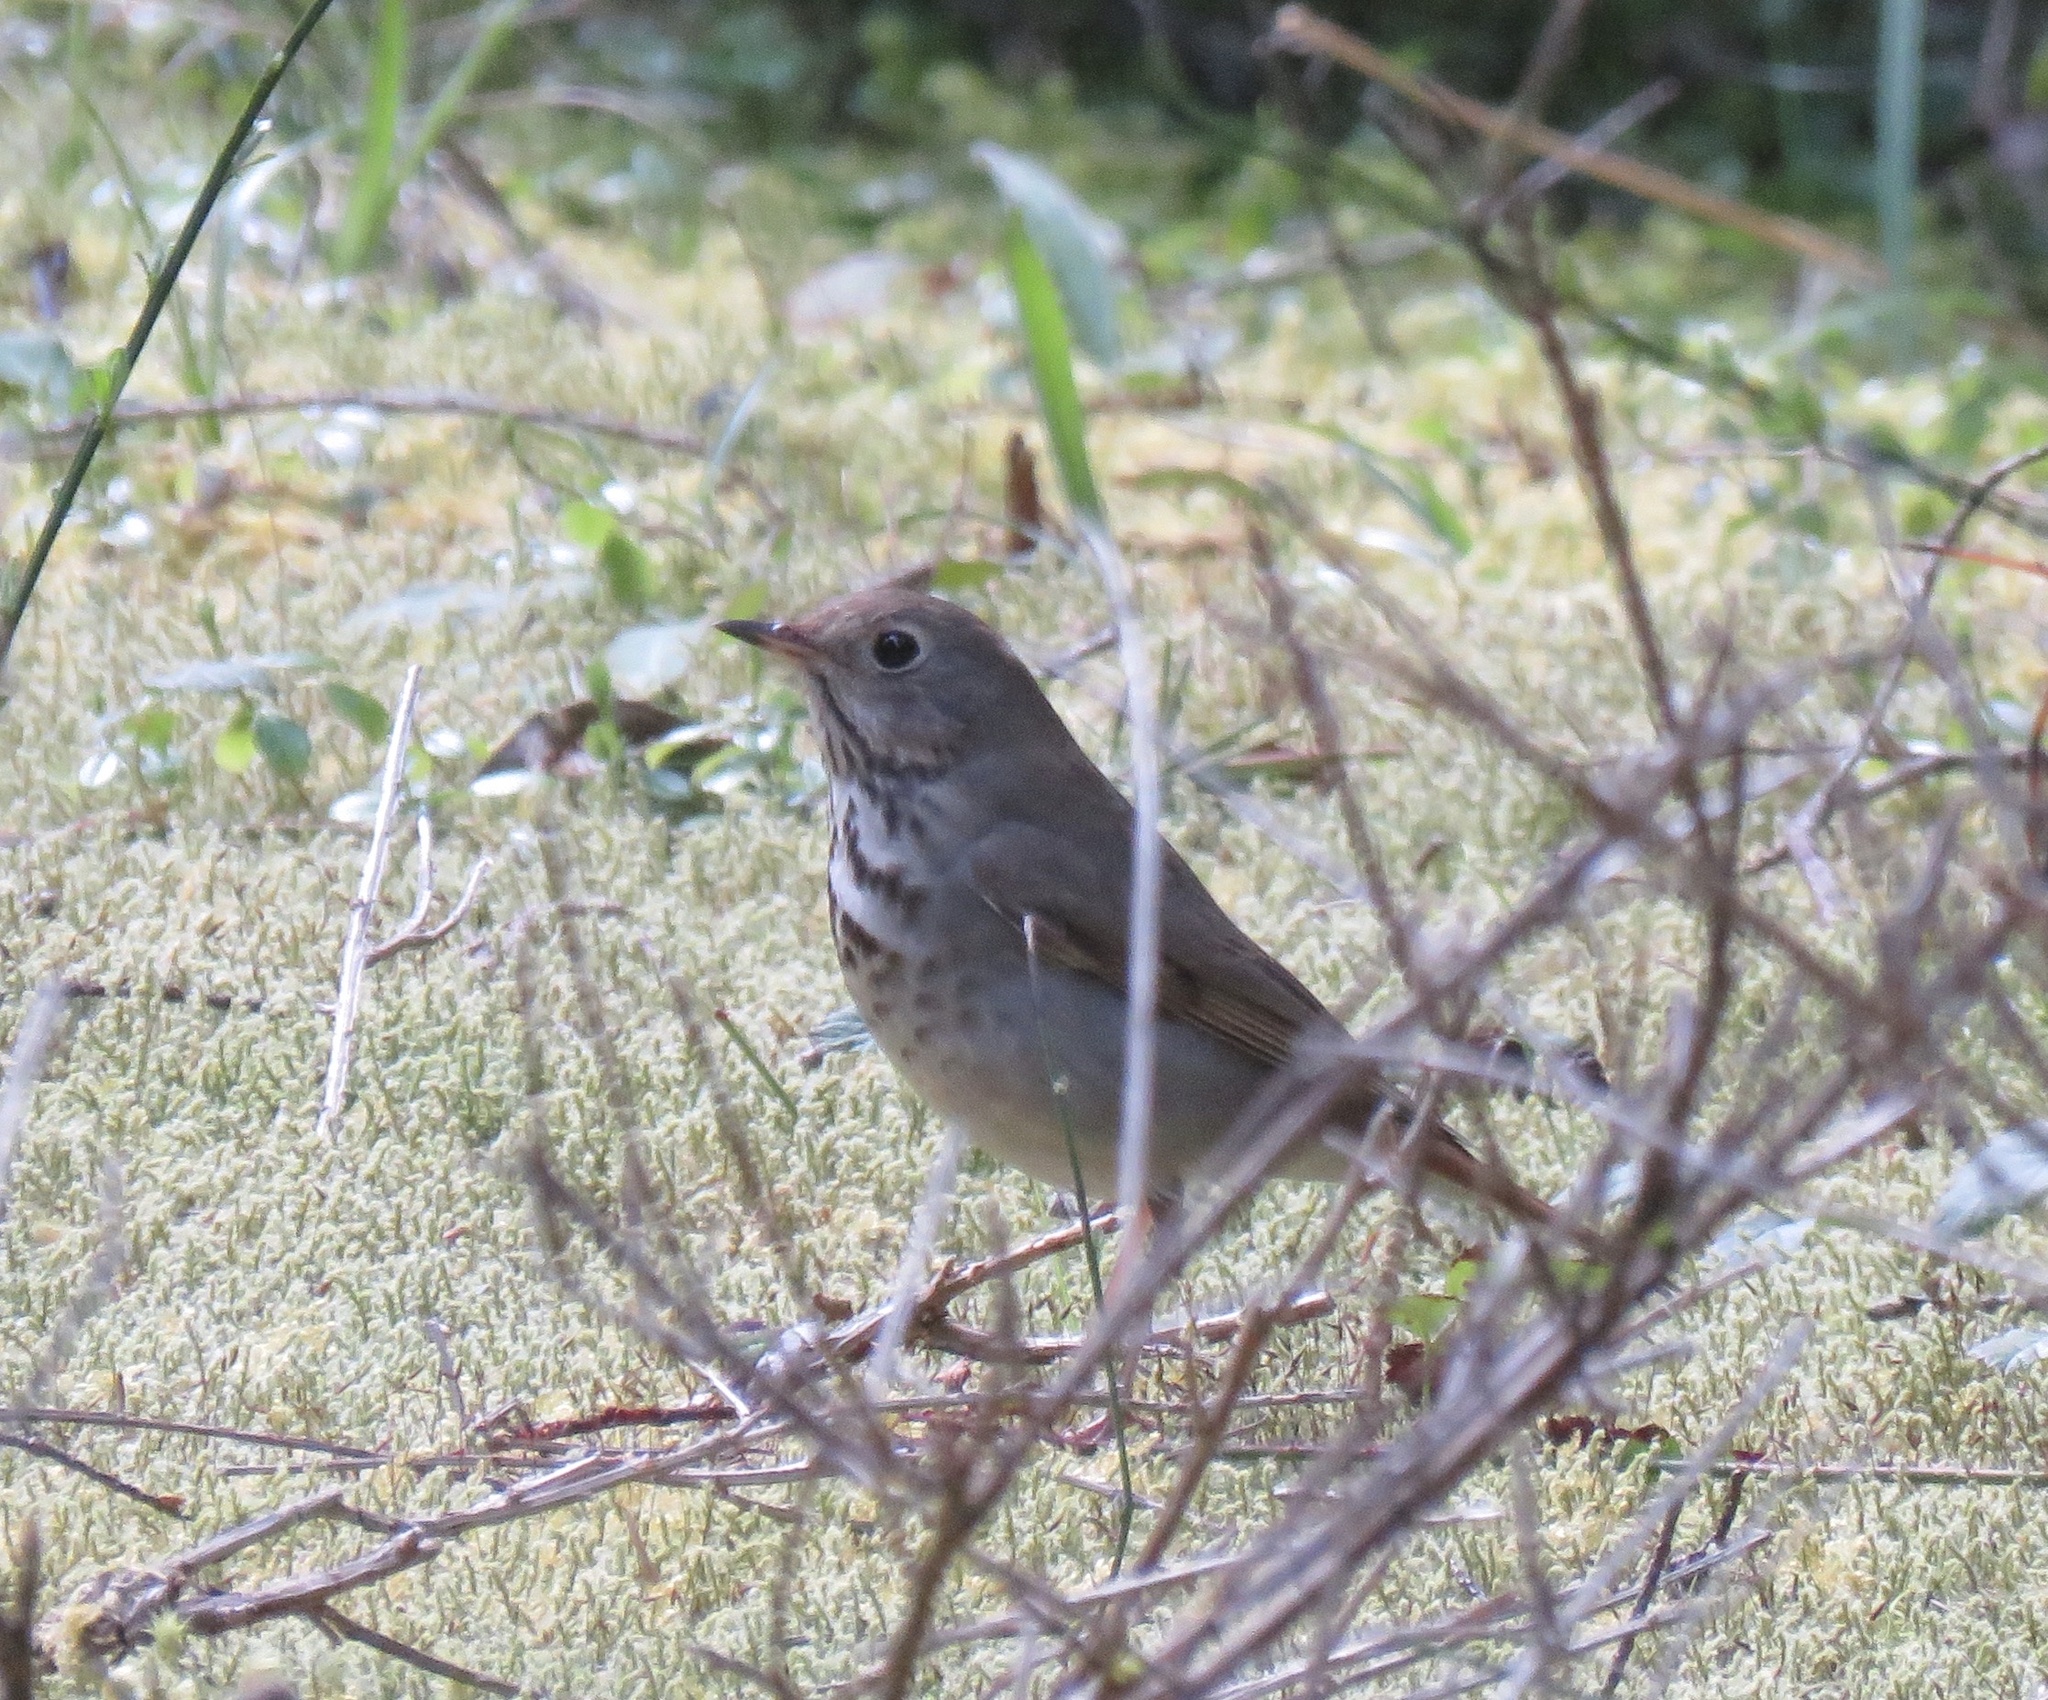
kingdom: Animalia
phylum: Chordata
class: Aves
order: Passeriformes
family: Turdidae
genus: Catharus
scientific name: Catharus guttatus
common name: Hermit thrush
